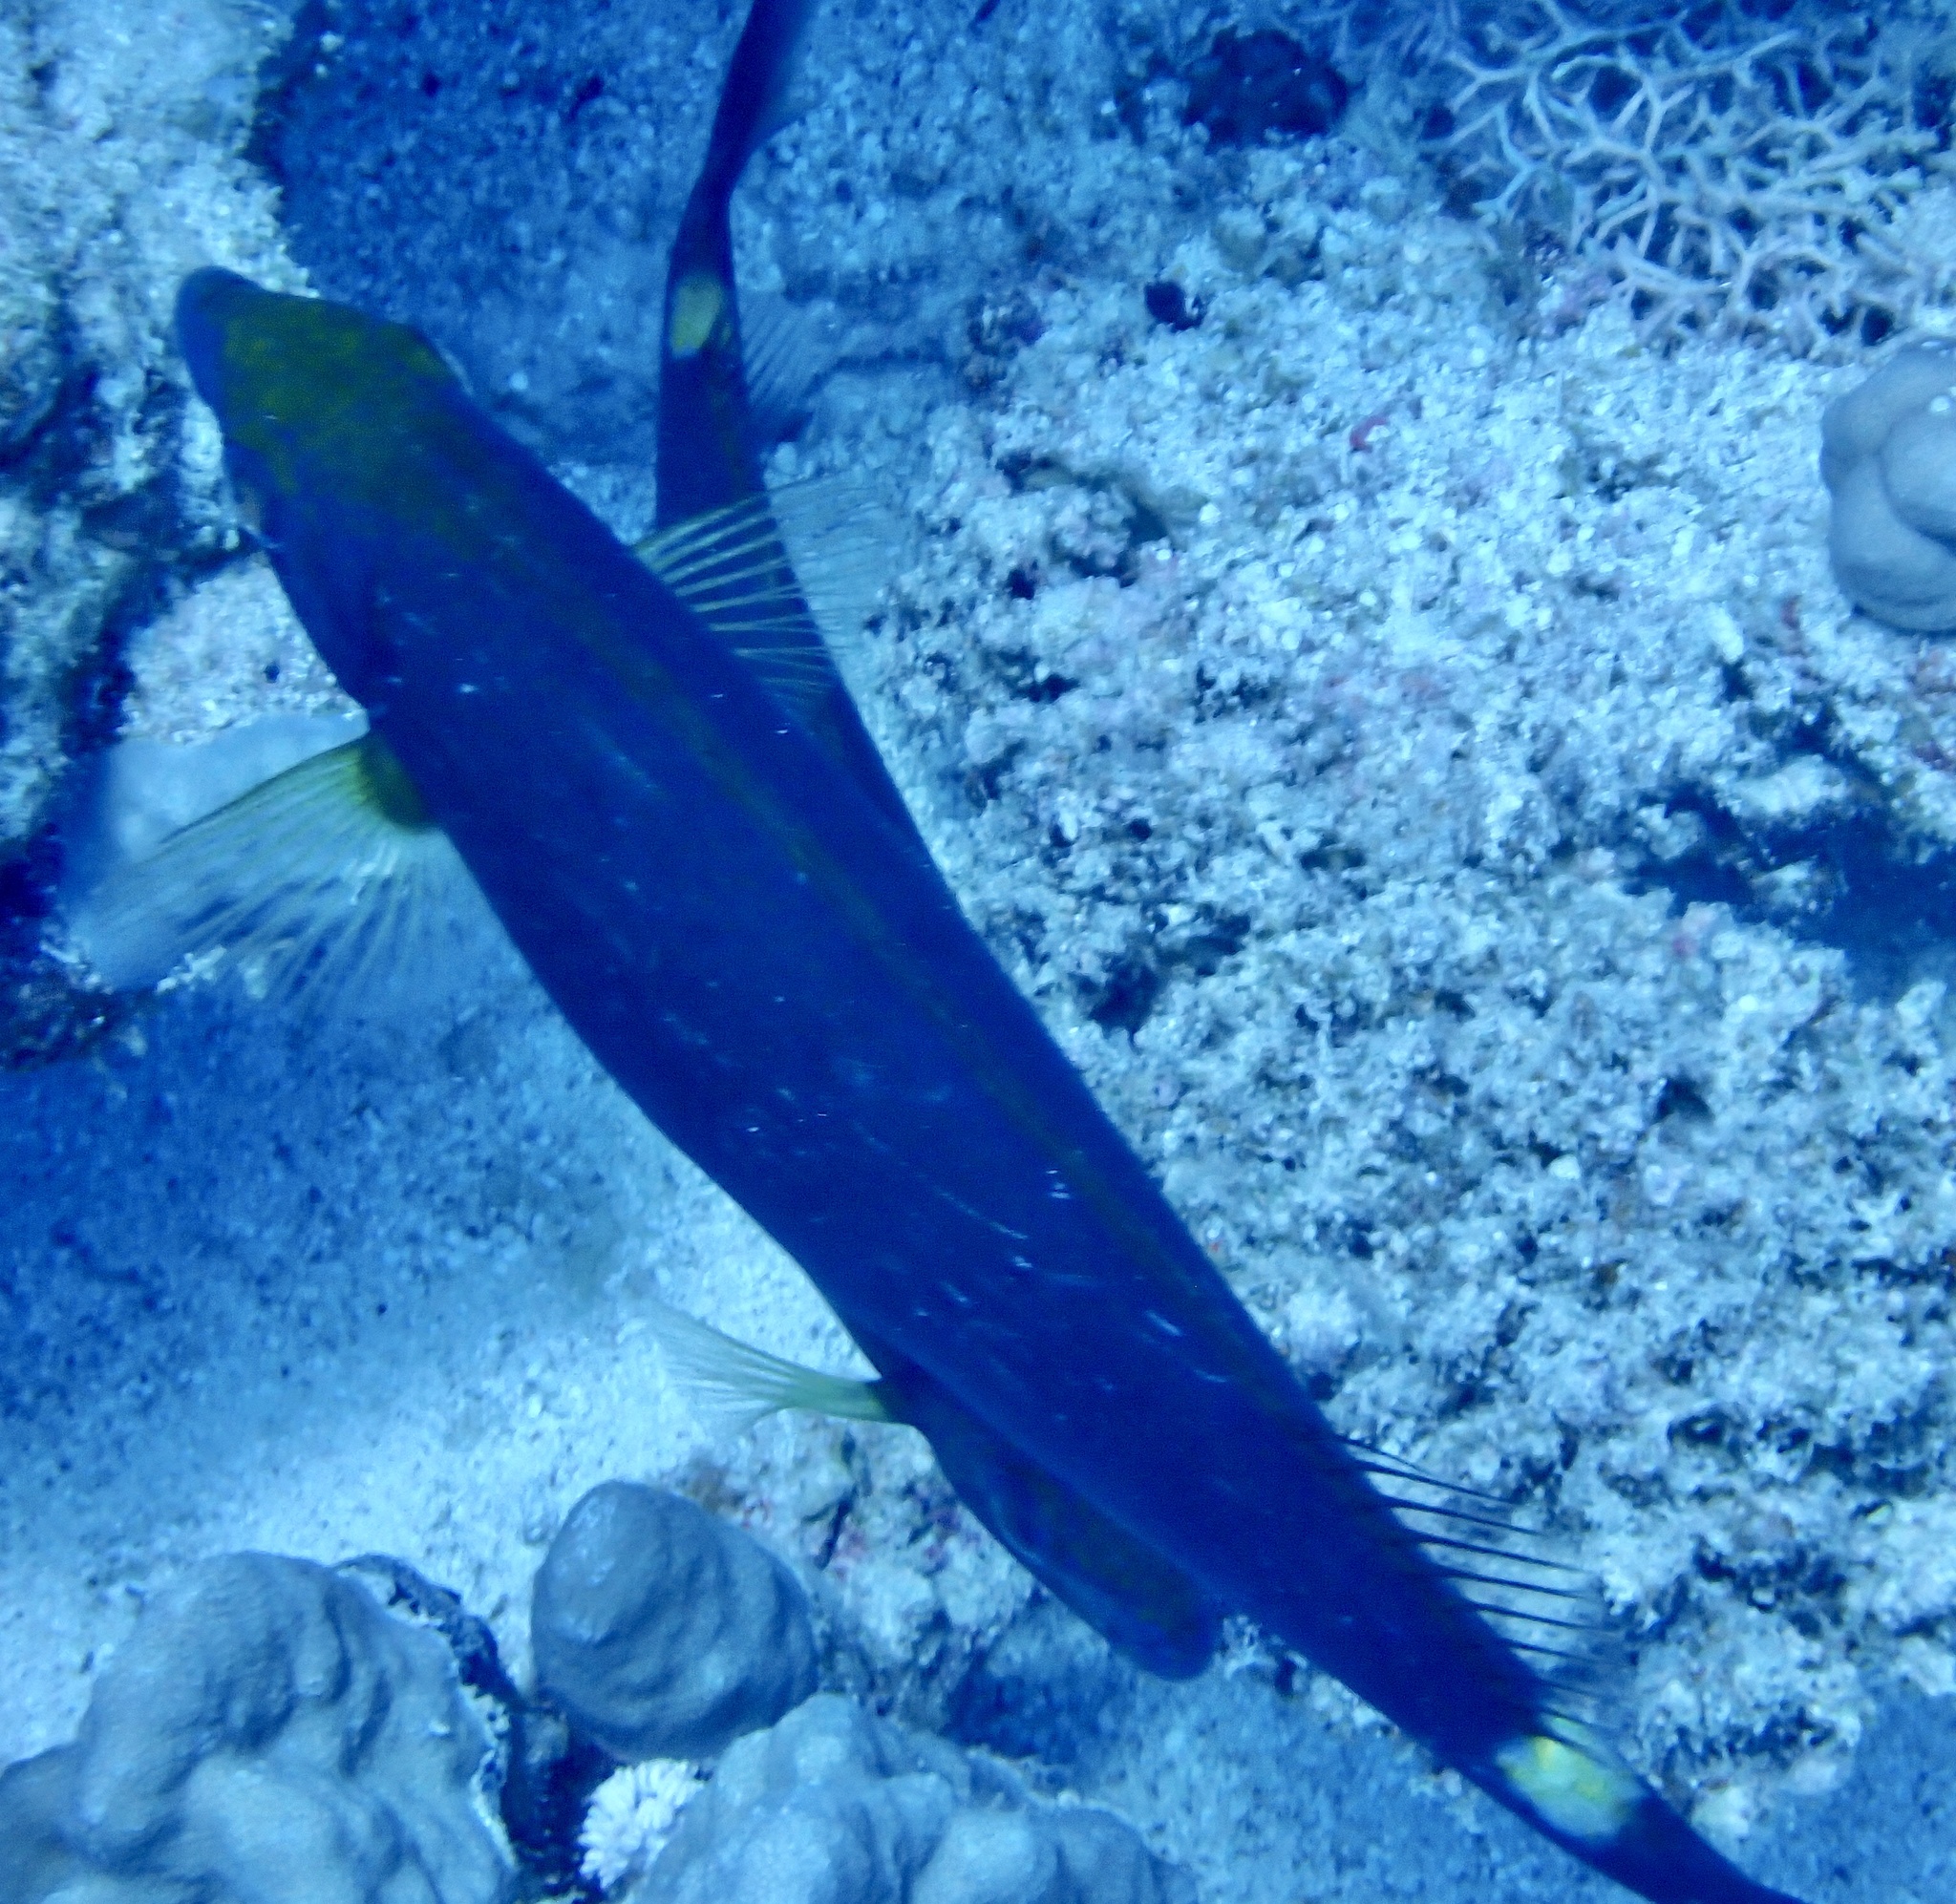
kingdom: Animalia
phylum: Chordata
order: Perciformes
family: Siganidae
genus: Siganus
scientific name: Siganus argenteus
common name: Forktail rabbitfish
